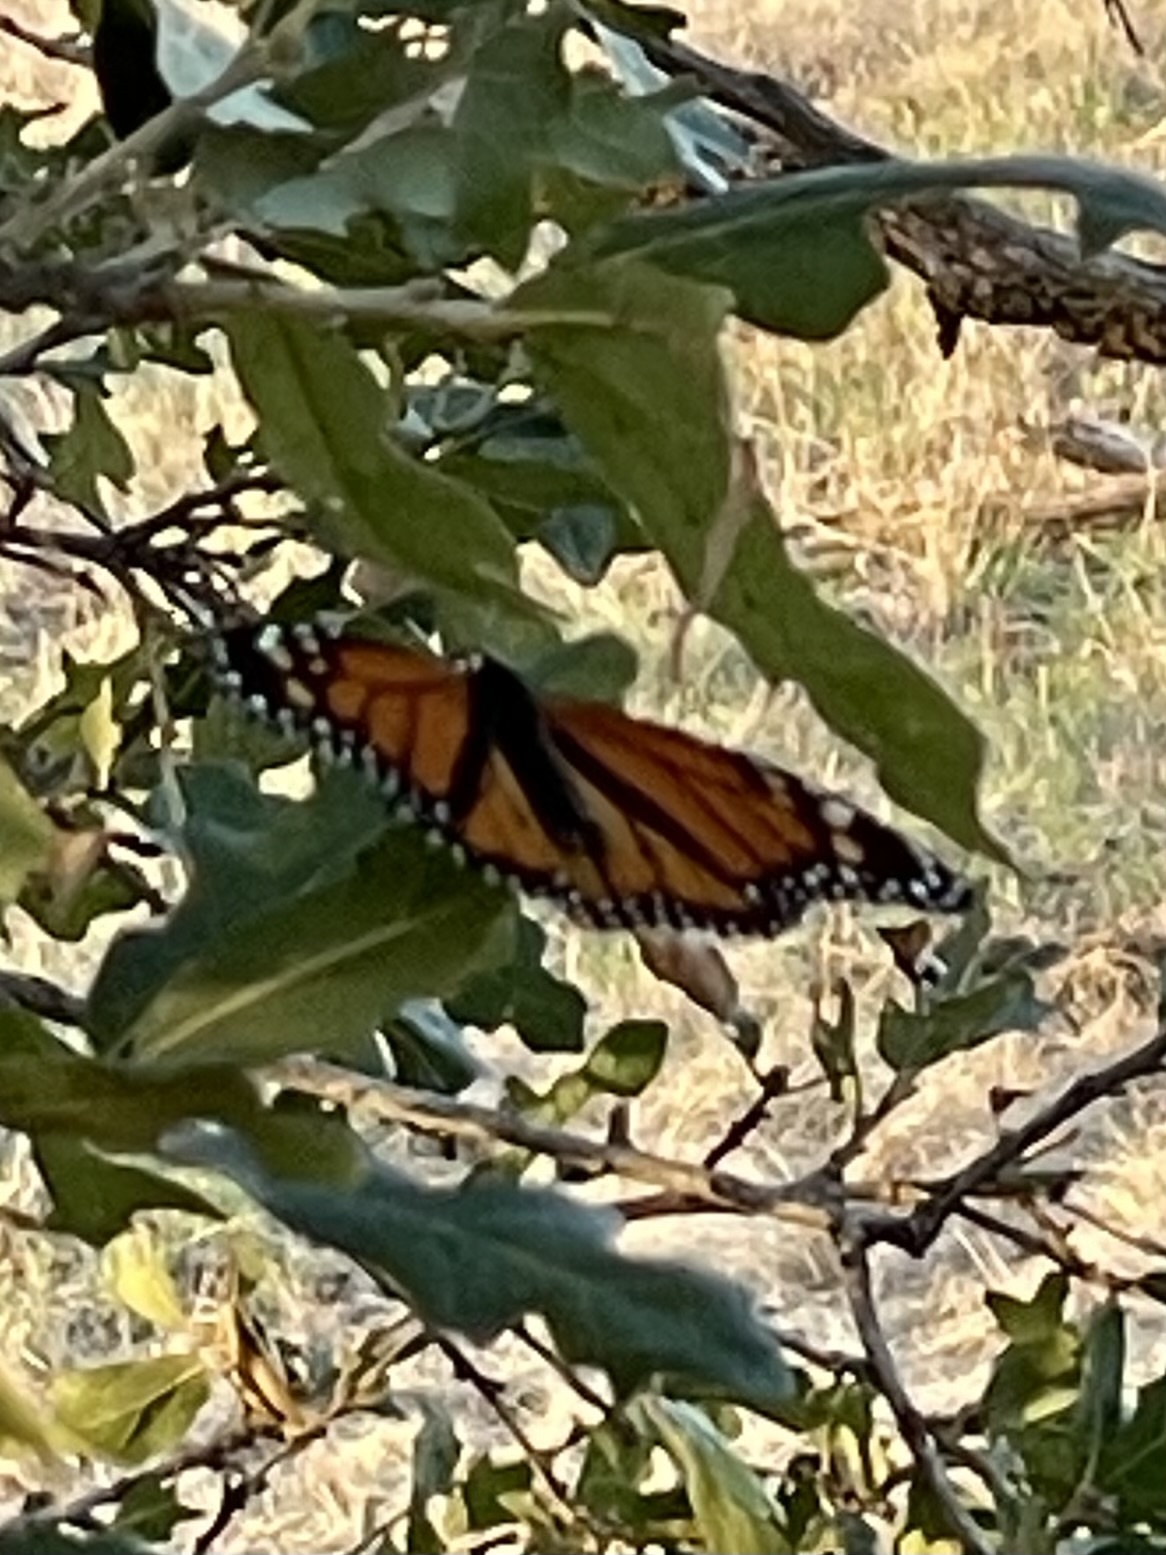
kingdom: Animalia
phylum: Arthropoda
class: Insecta
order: Lepidoptera
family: Nymphalidae
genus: Danaus
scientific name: Danaus plexippus
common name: Monarch
